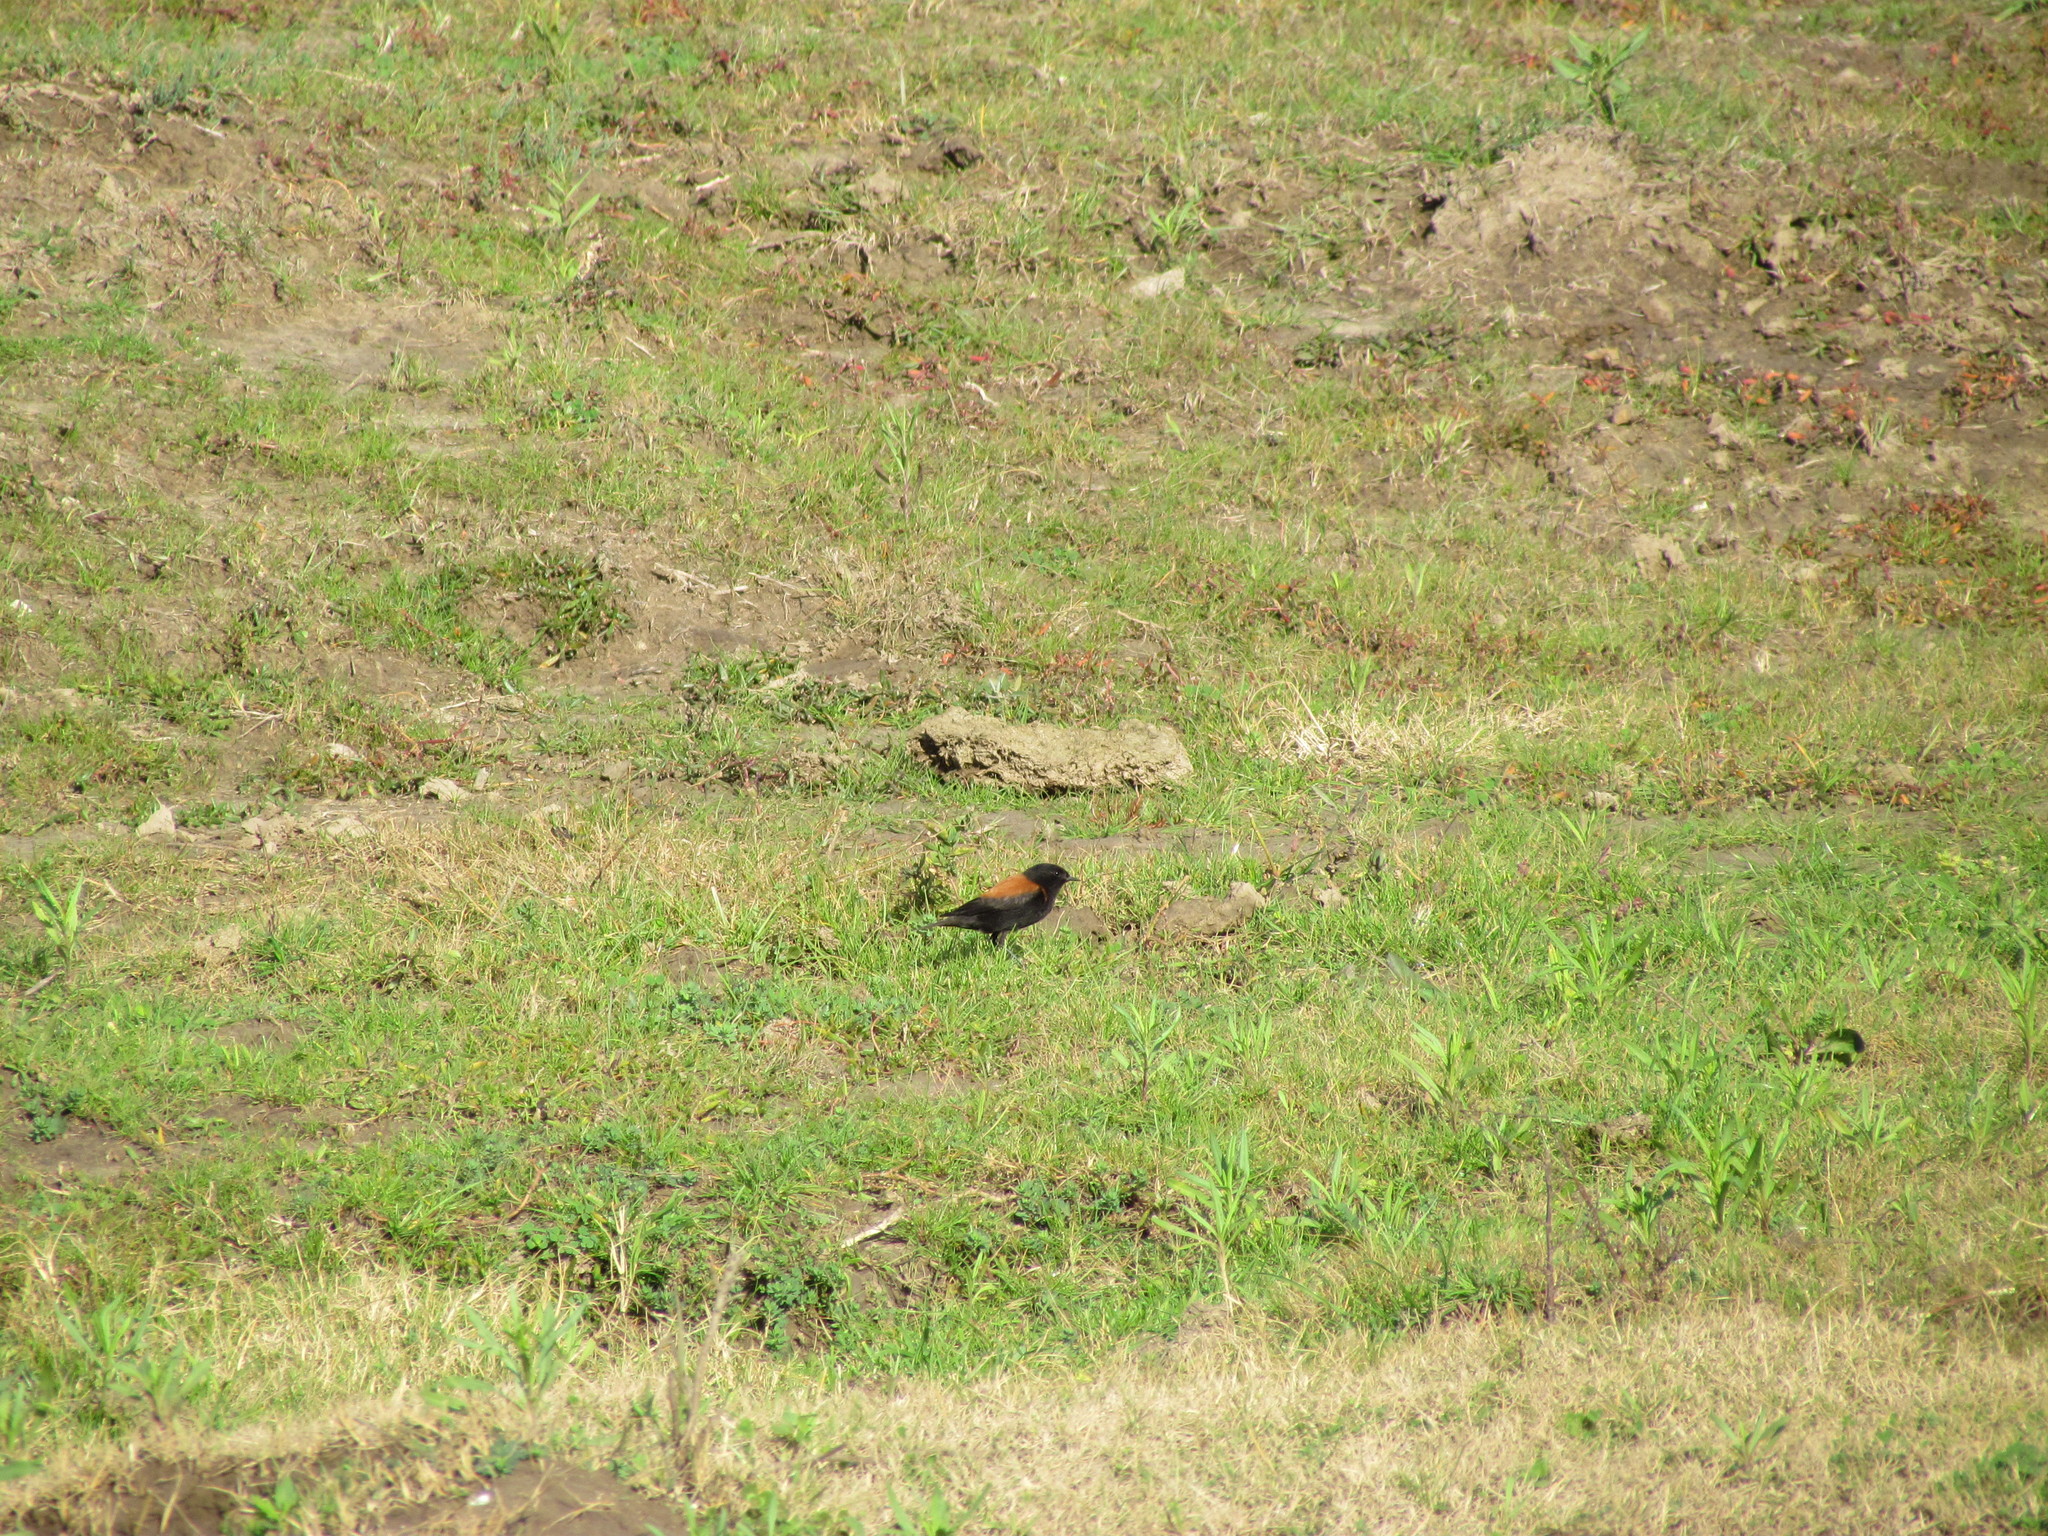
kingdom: Animalia
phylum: Chordata
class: Aves
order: Passeriformes
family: Tyrannidae
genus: Lessonia
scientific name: Lessonia rufa
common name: Austral negrito
